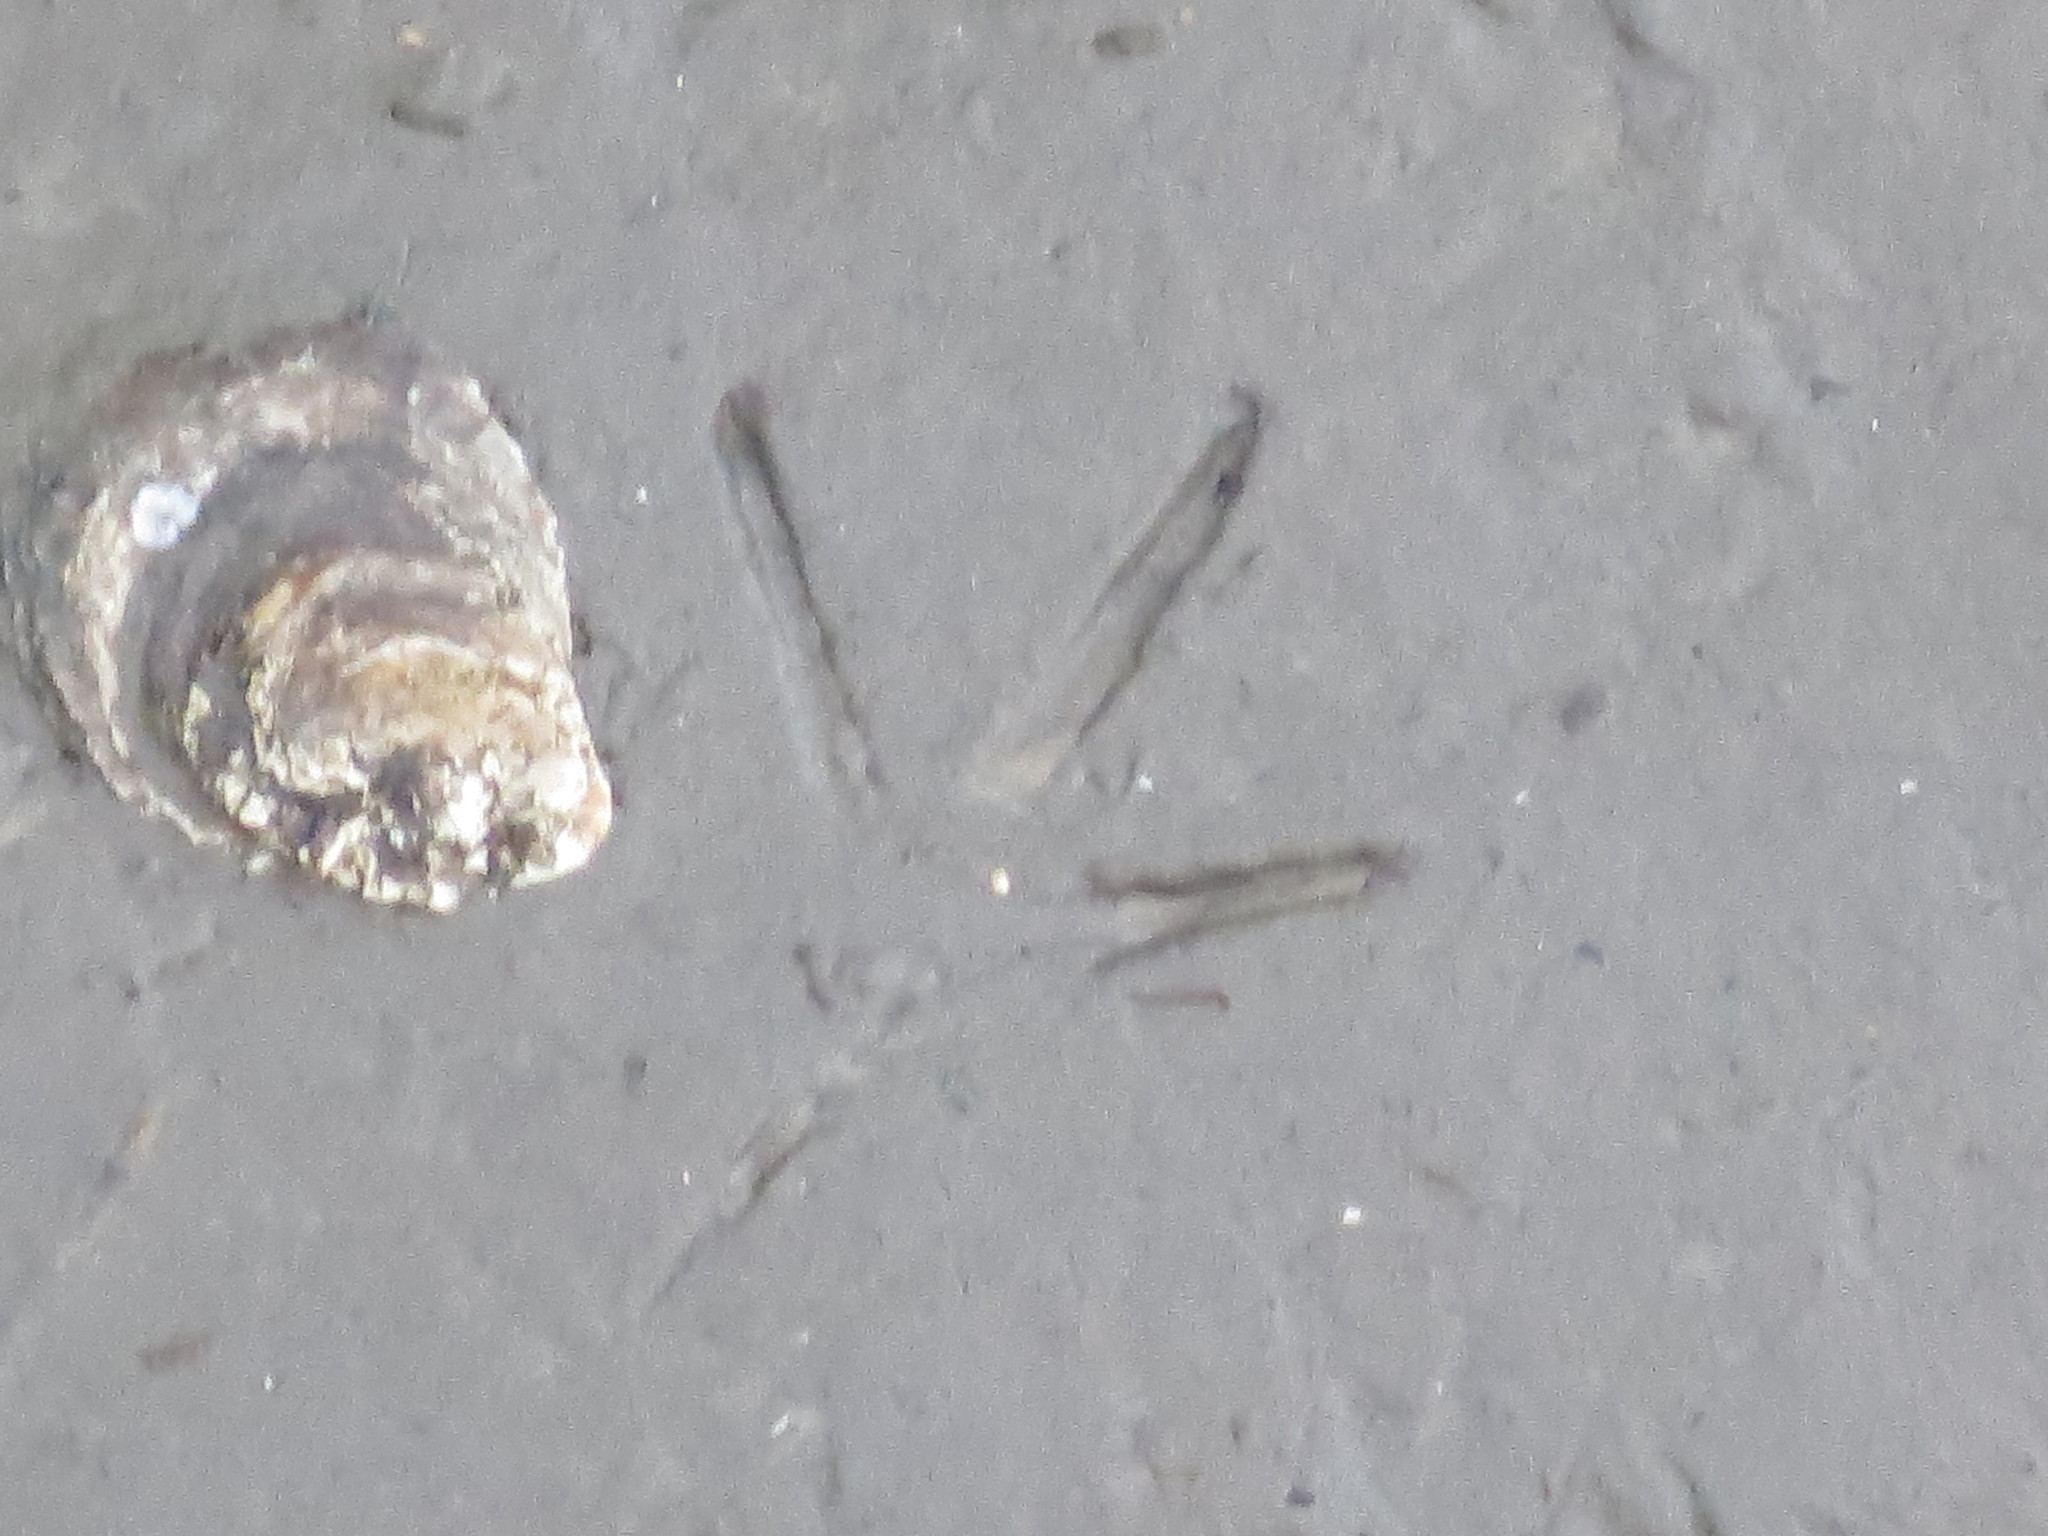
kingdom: Animalia
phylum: Mollusca
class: Bivalvia
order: Ostreida
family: Ostreidae
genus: Crassostrea
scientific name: Crassostrea virginica
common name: American oyster
